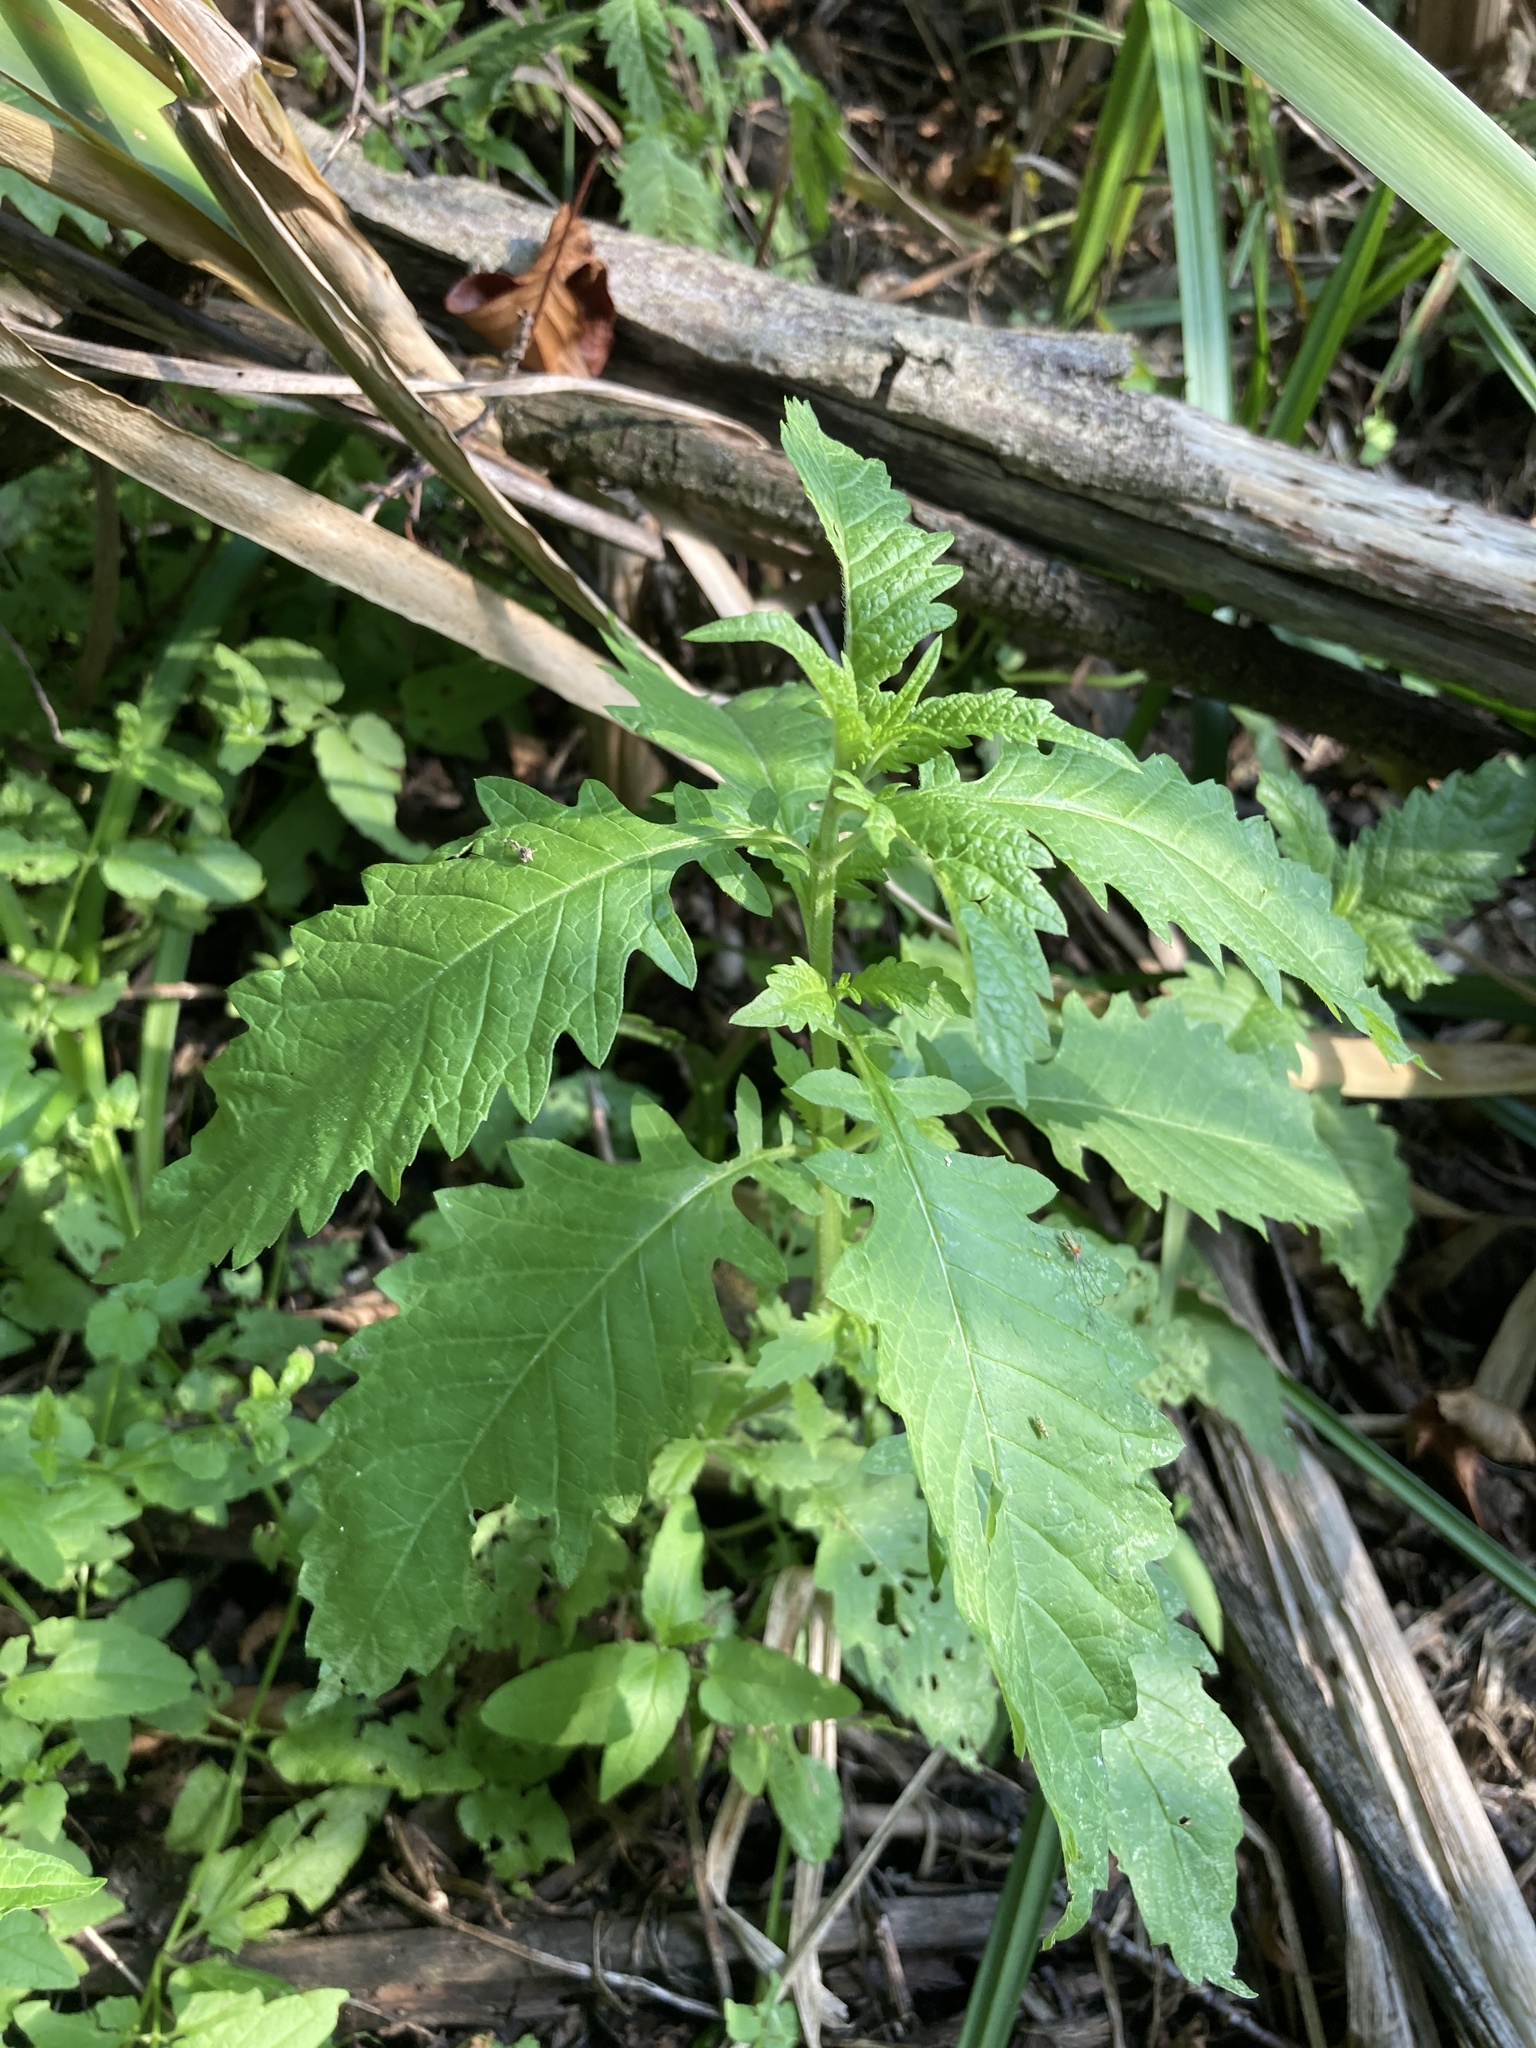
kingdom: Plantae
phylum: Tracheophyta
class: Magnoliopsida
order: Lamiales
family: Lamiaceae
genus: Lycopus
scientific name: Lycopus europaeus
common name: European bugleweed
